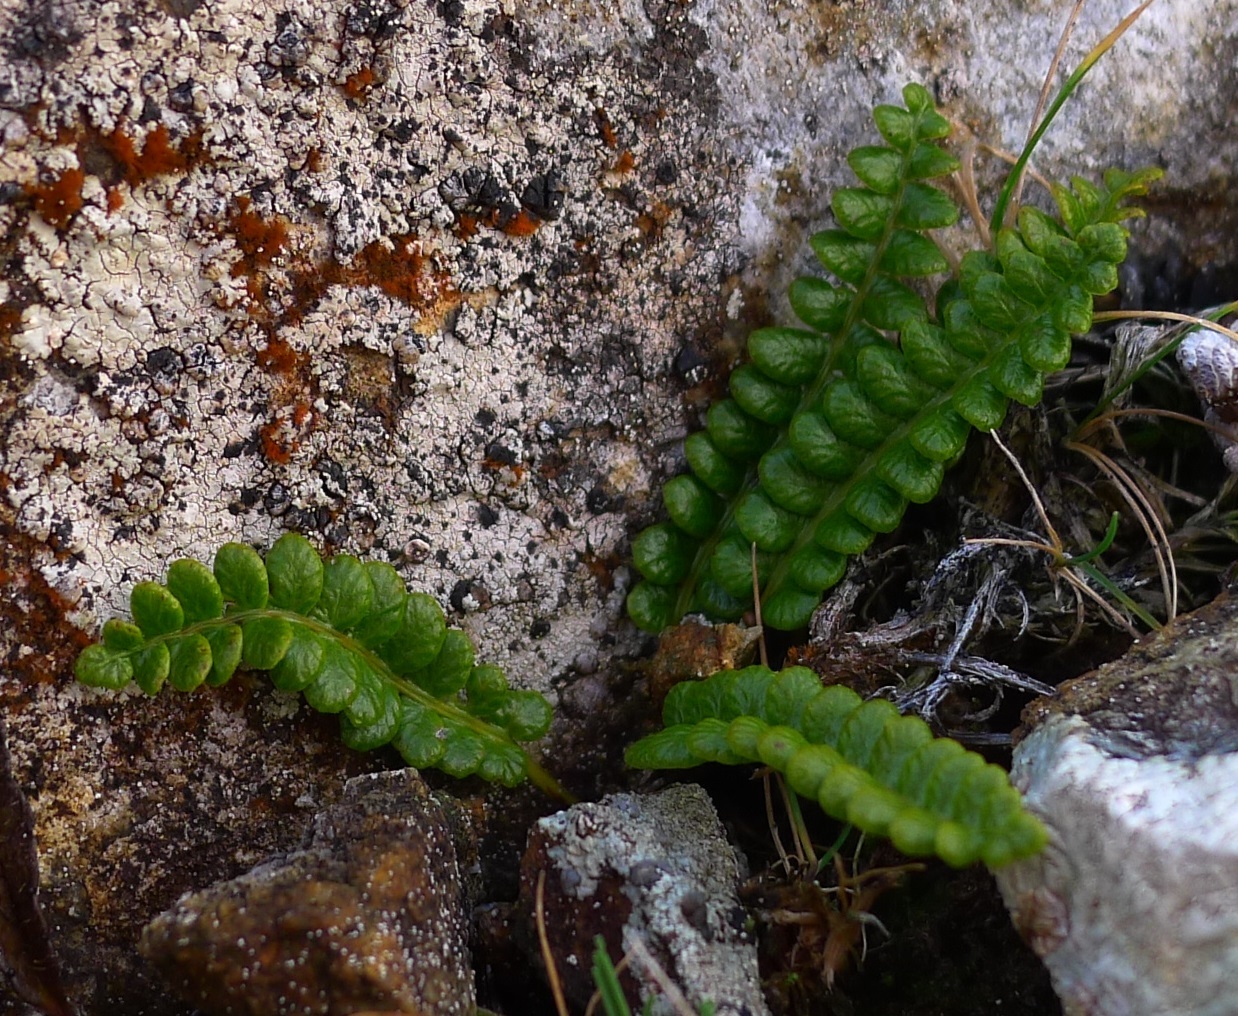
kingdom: Plantae
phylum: Tracheophyta
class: Polypodiopsida
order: Polypodiales
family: Blechnaceae
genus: Austroblechnum
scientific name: Austroblechnum penna-marina
